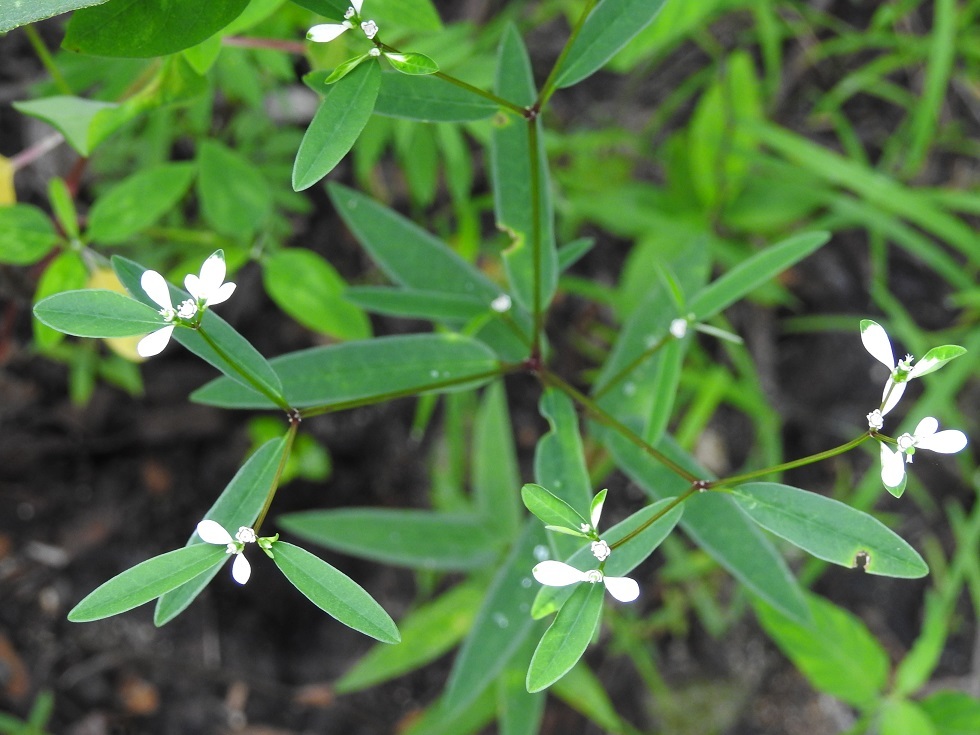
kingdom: Plantae
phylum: Tracheophyta
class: Magnoliopsida
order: Malpighiales
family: Euphorbiaceae
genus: Euphorbia
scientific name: Euphorbia ariensis
